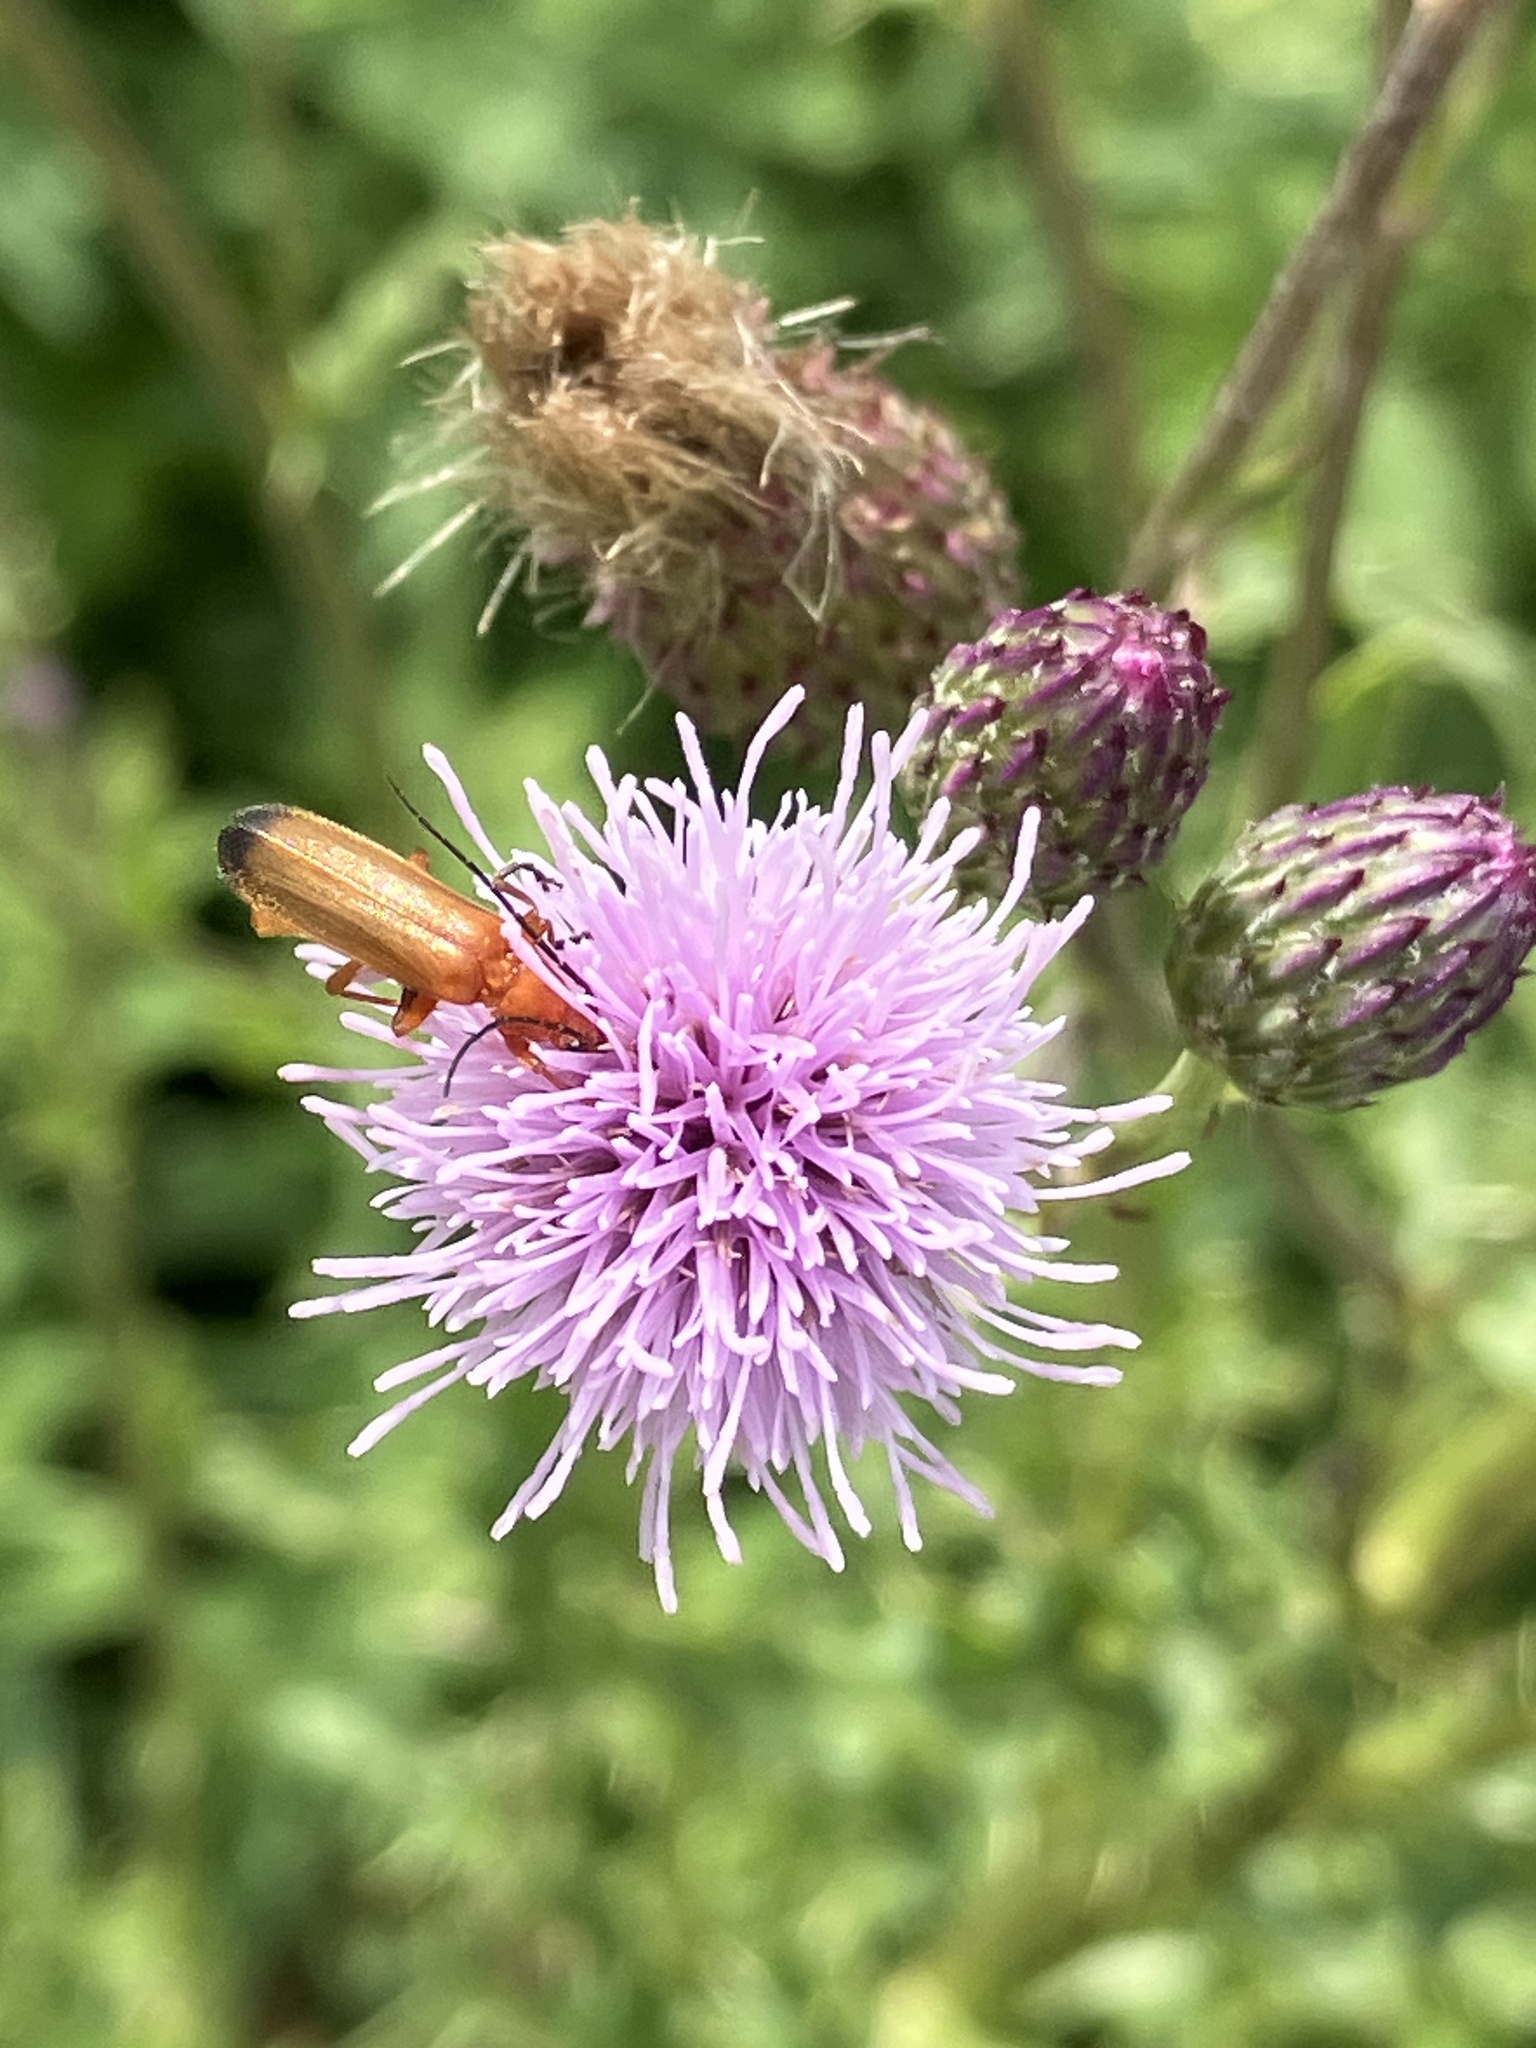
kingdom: Animalia
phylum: Arthropoda
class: Insecta
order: Coleoptera
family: Cantharidae
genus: Rhagonycha
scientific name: Rhagonycha fulva
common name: Common red soldier beetle
